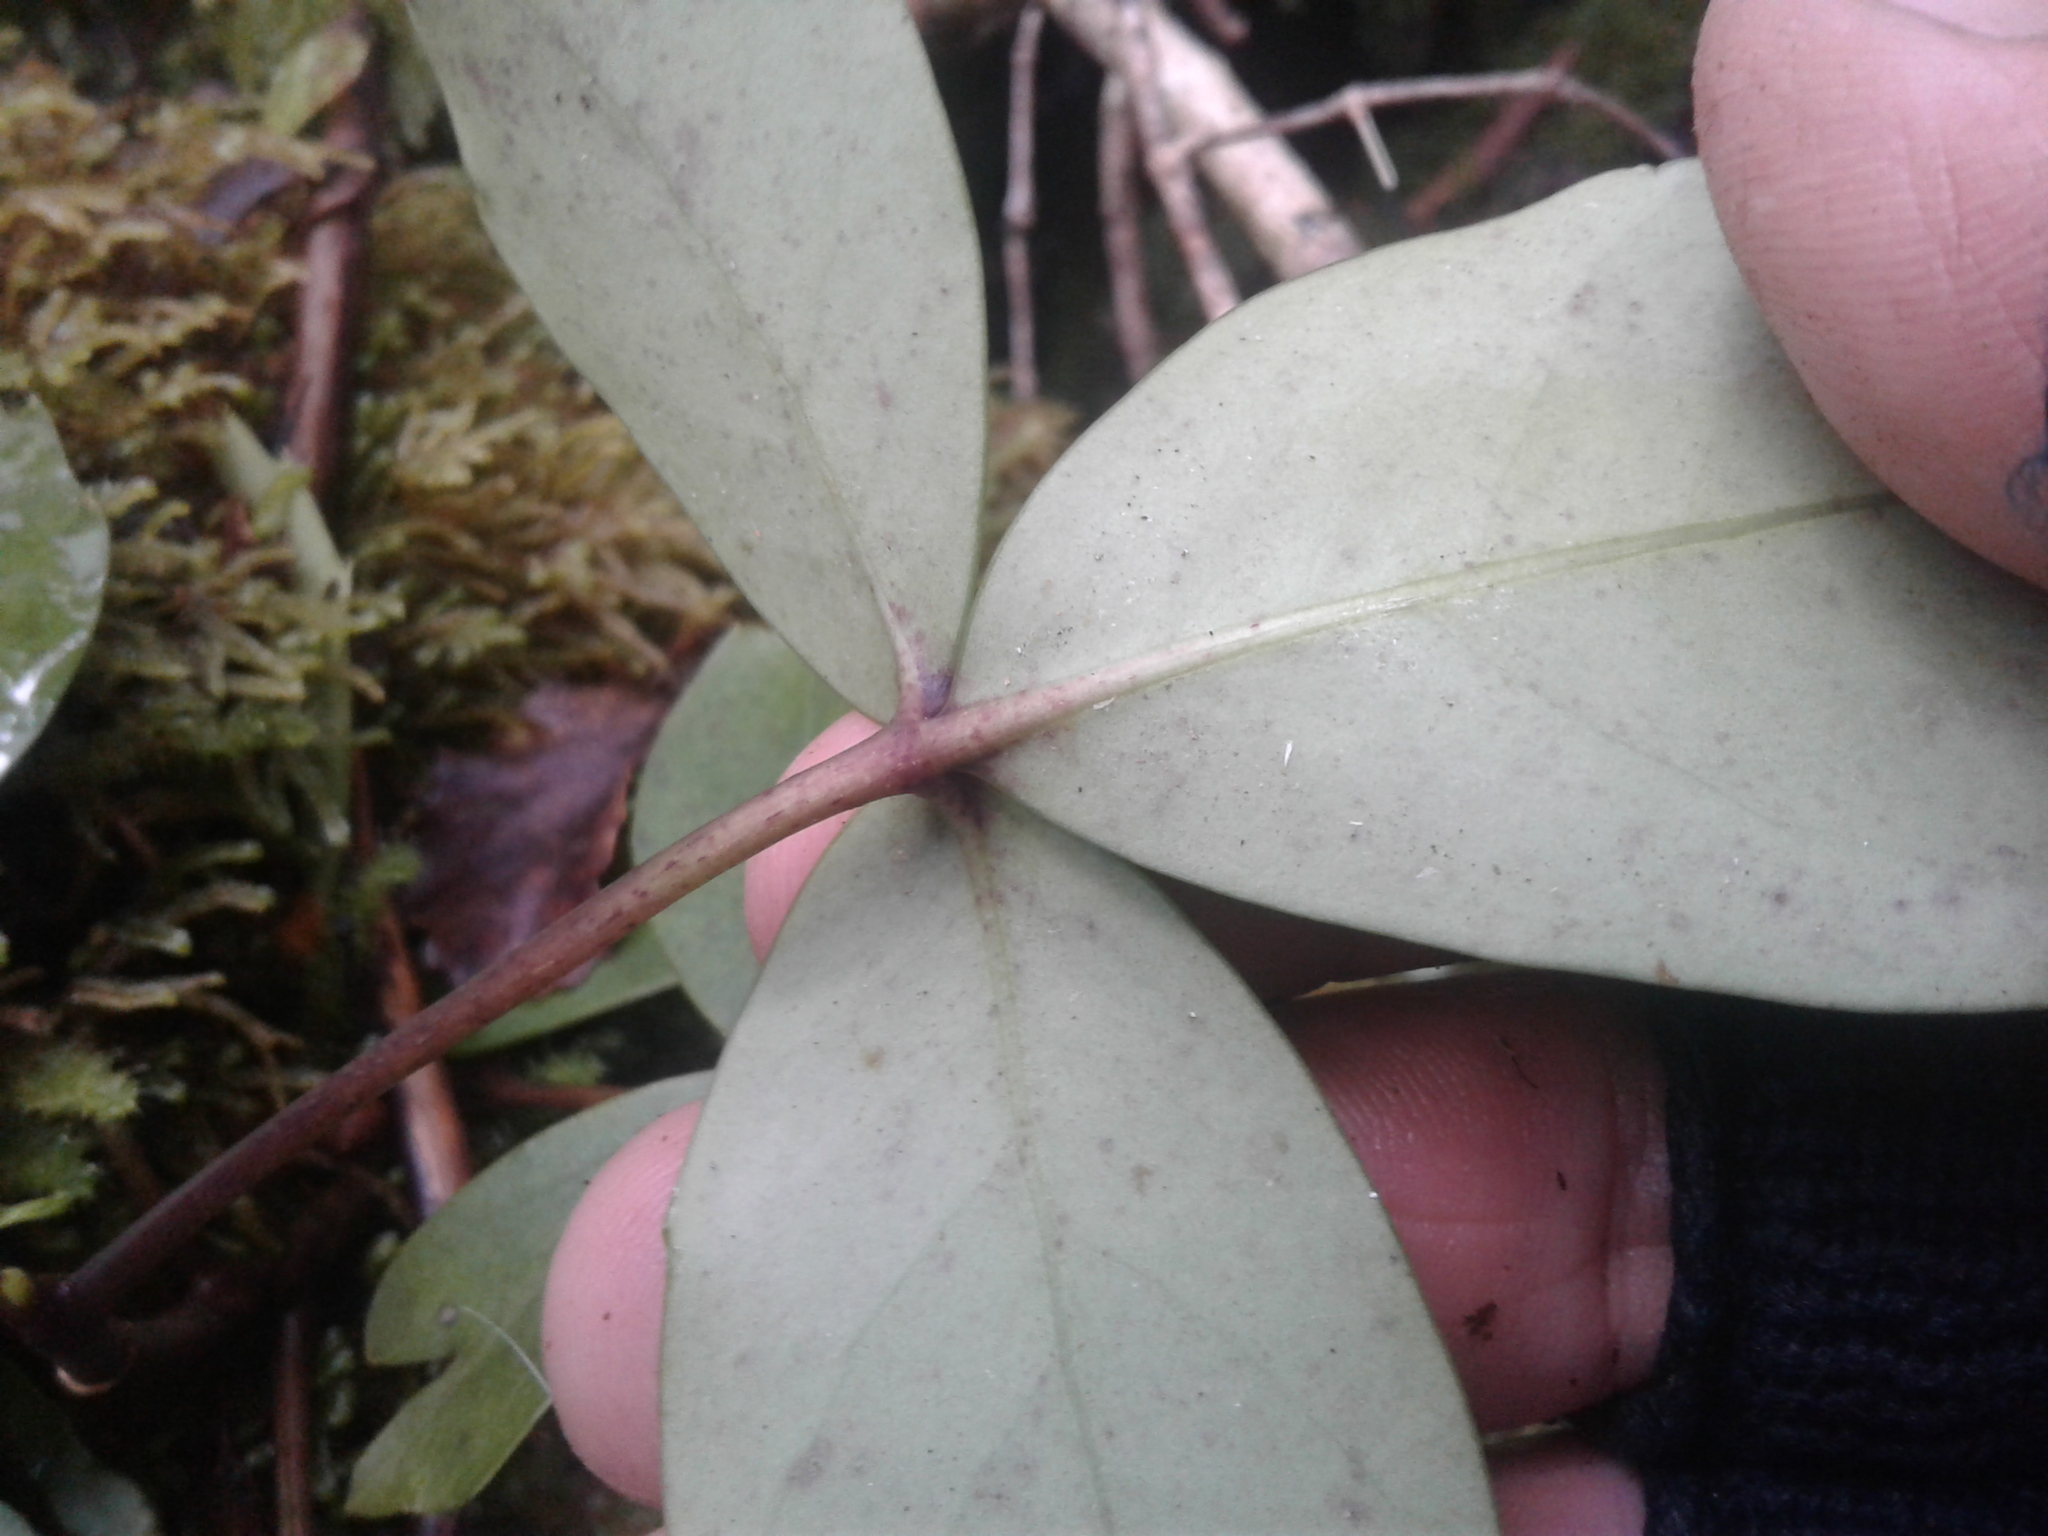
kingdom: Plantae
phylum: Tracheophyta
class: Magnoliopsida
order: Apiales
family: Araliaceae
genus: Neopanax
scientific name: Neopanax colensoi
